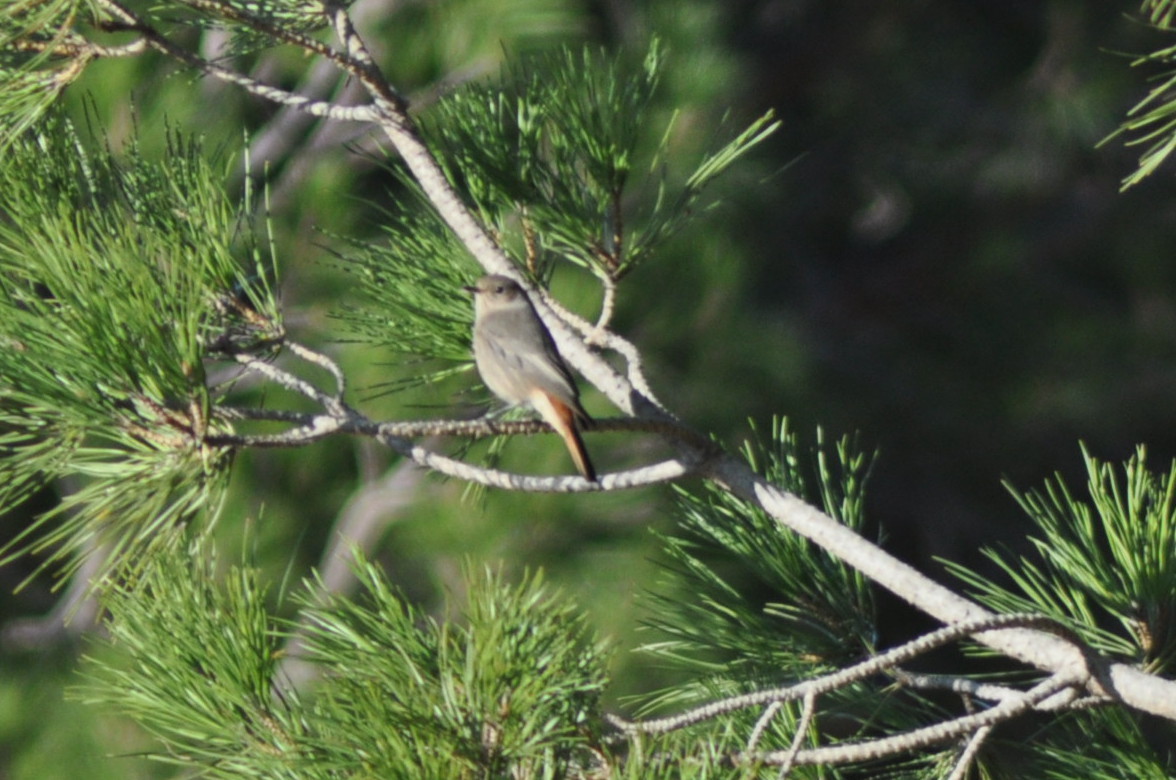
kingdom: Animalia
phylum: Chordata
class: Aves
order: Passeriformes
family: Muscicapidae
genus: Phoenicurus
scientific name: Phoenicurus ochruros
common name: Black redstart
